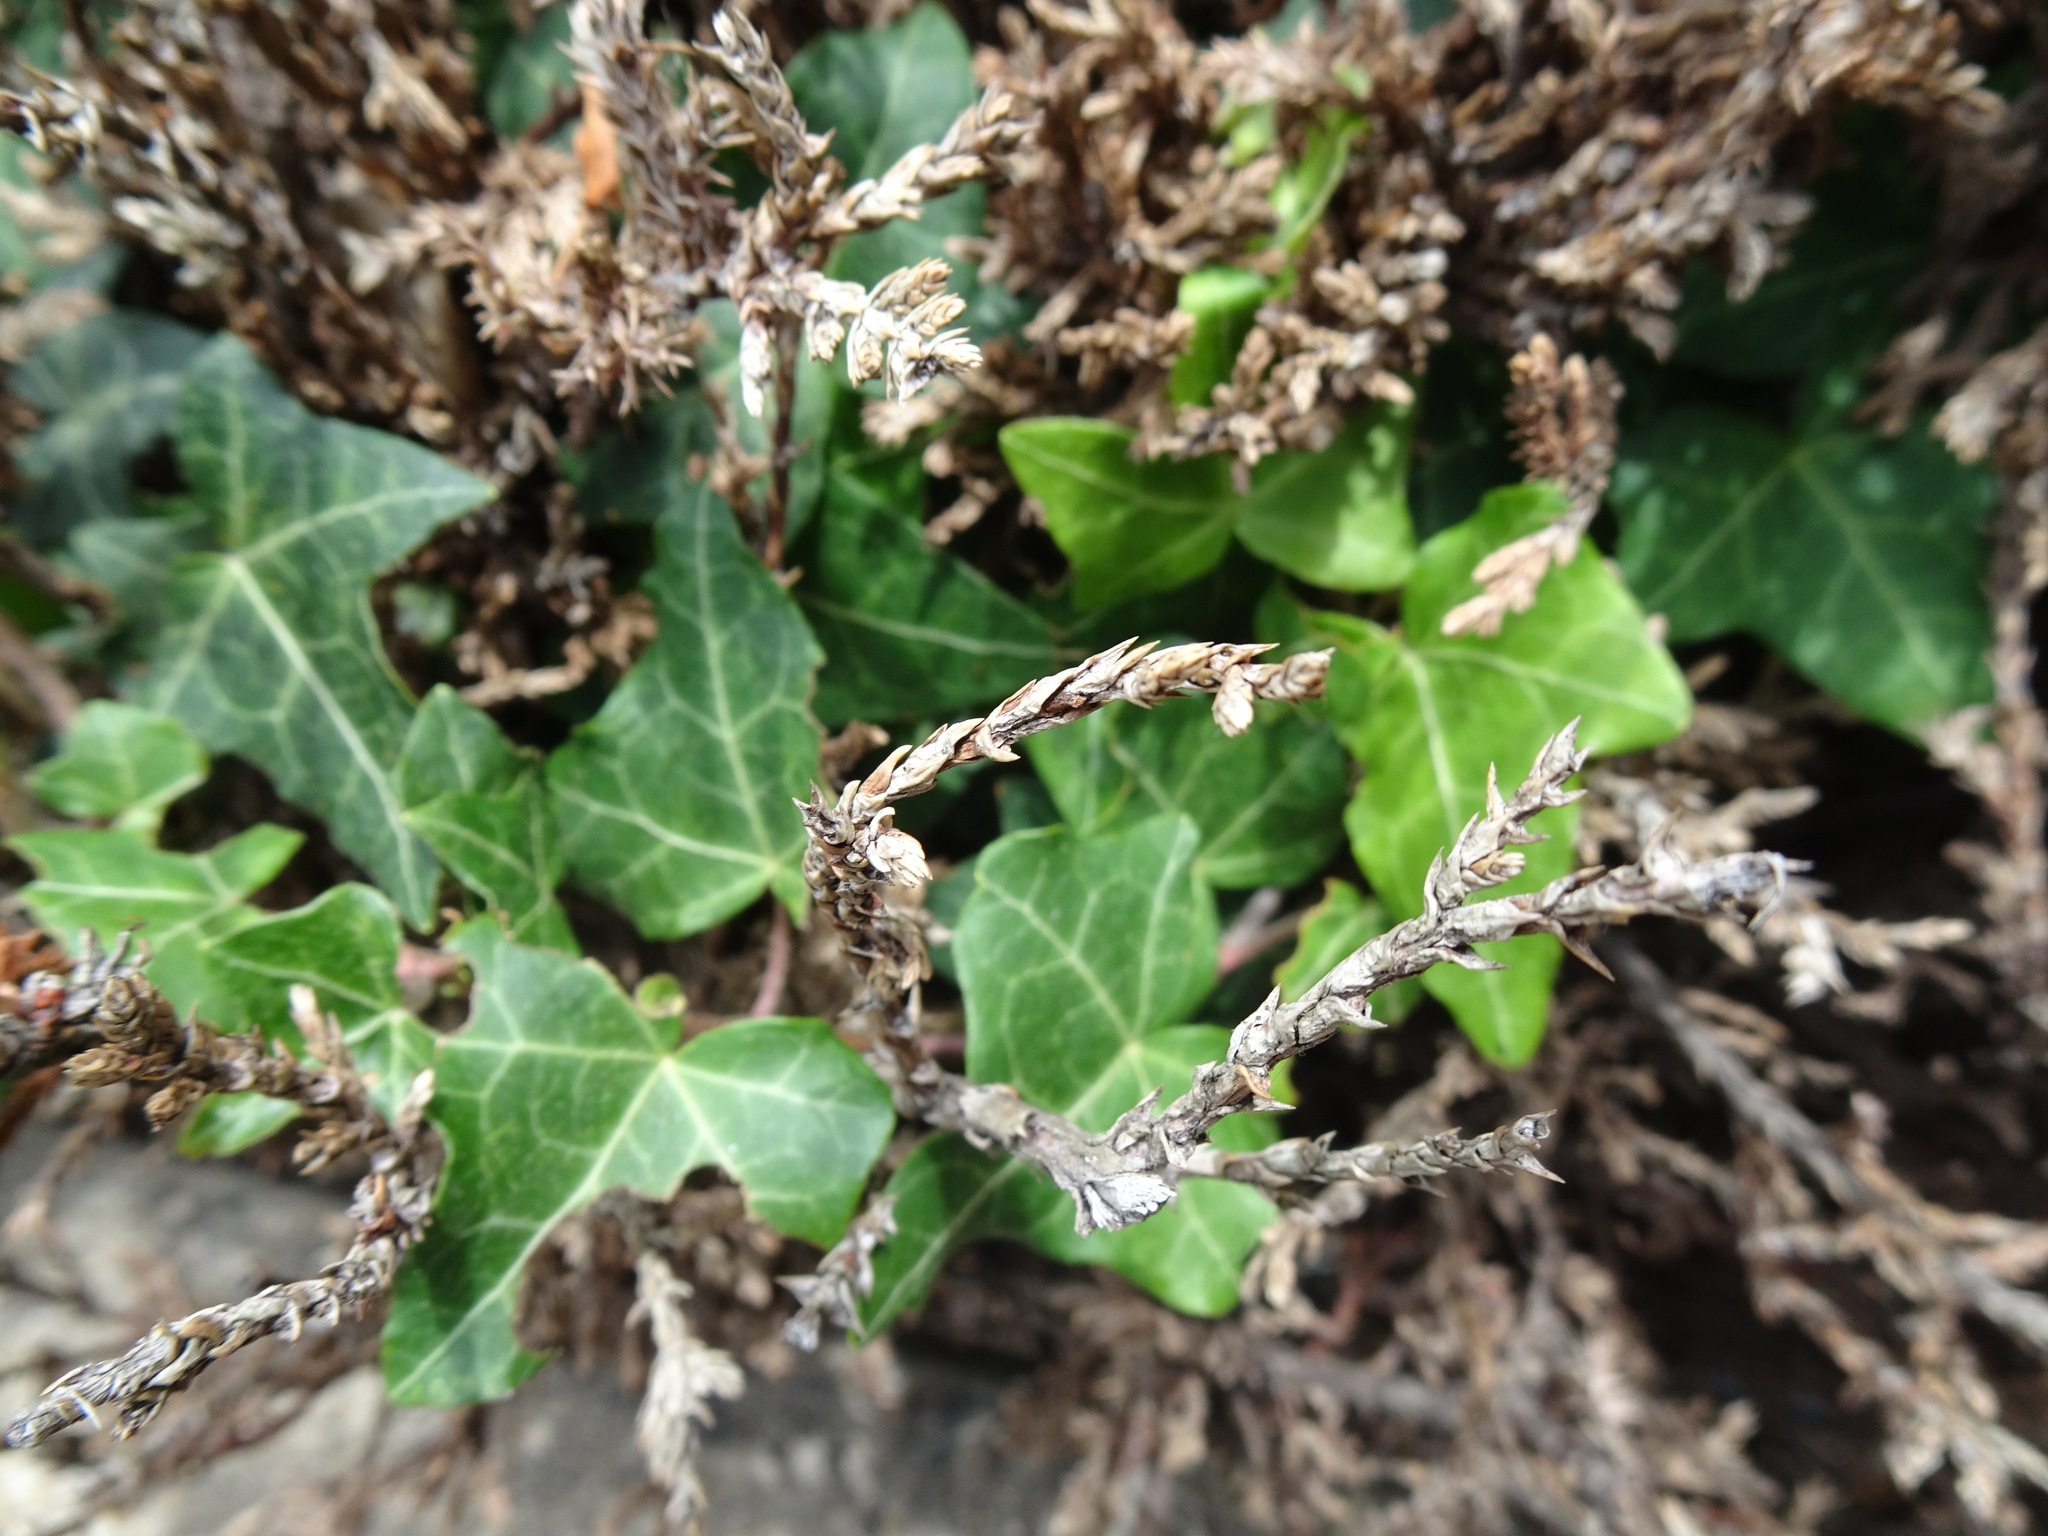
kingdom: Plantae
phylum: Tracheophyta
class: Magnoliopsida
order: Apiales
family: Araliaceae
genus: Hedera
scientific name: Hedera helix
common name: Ivy
